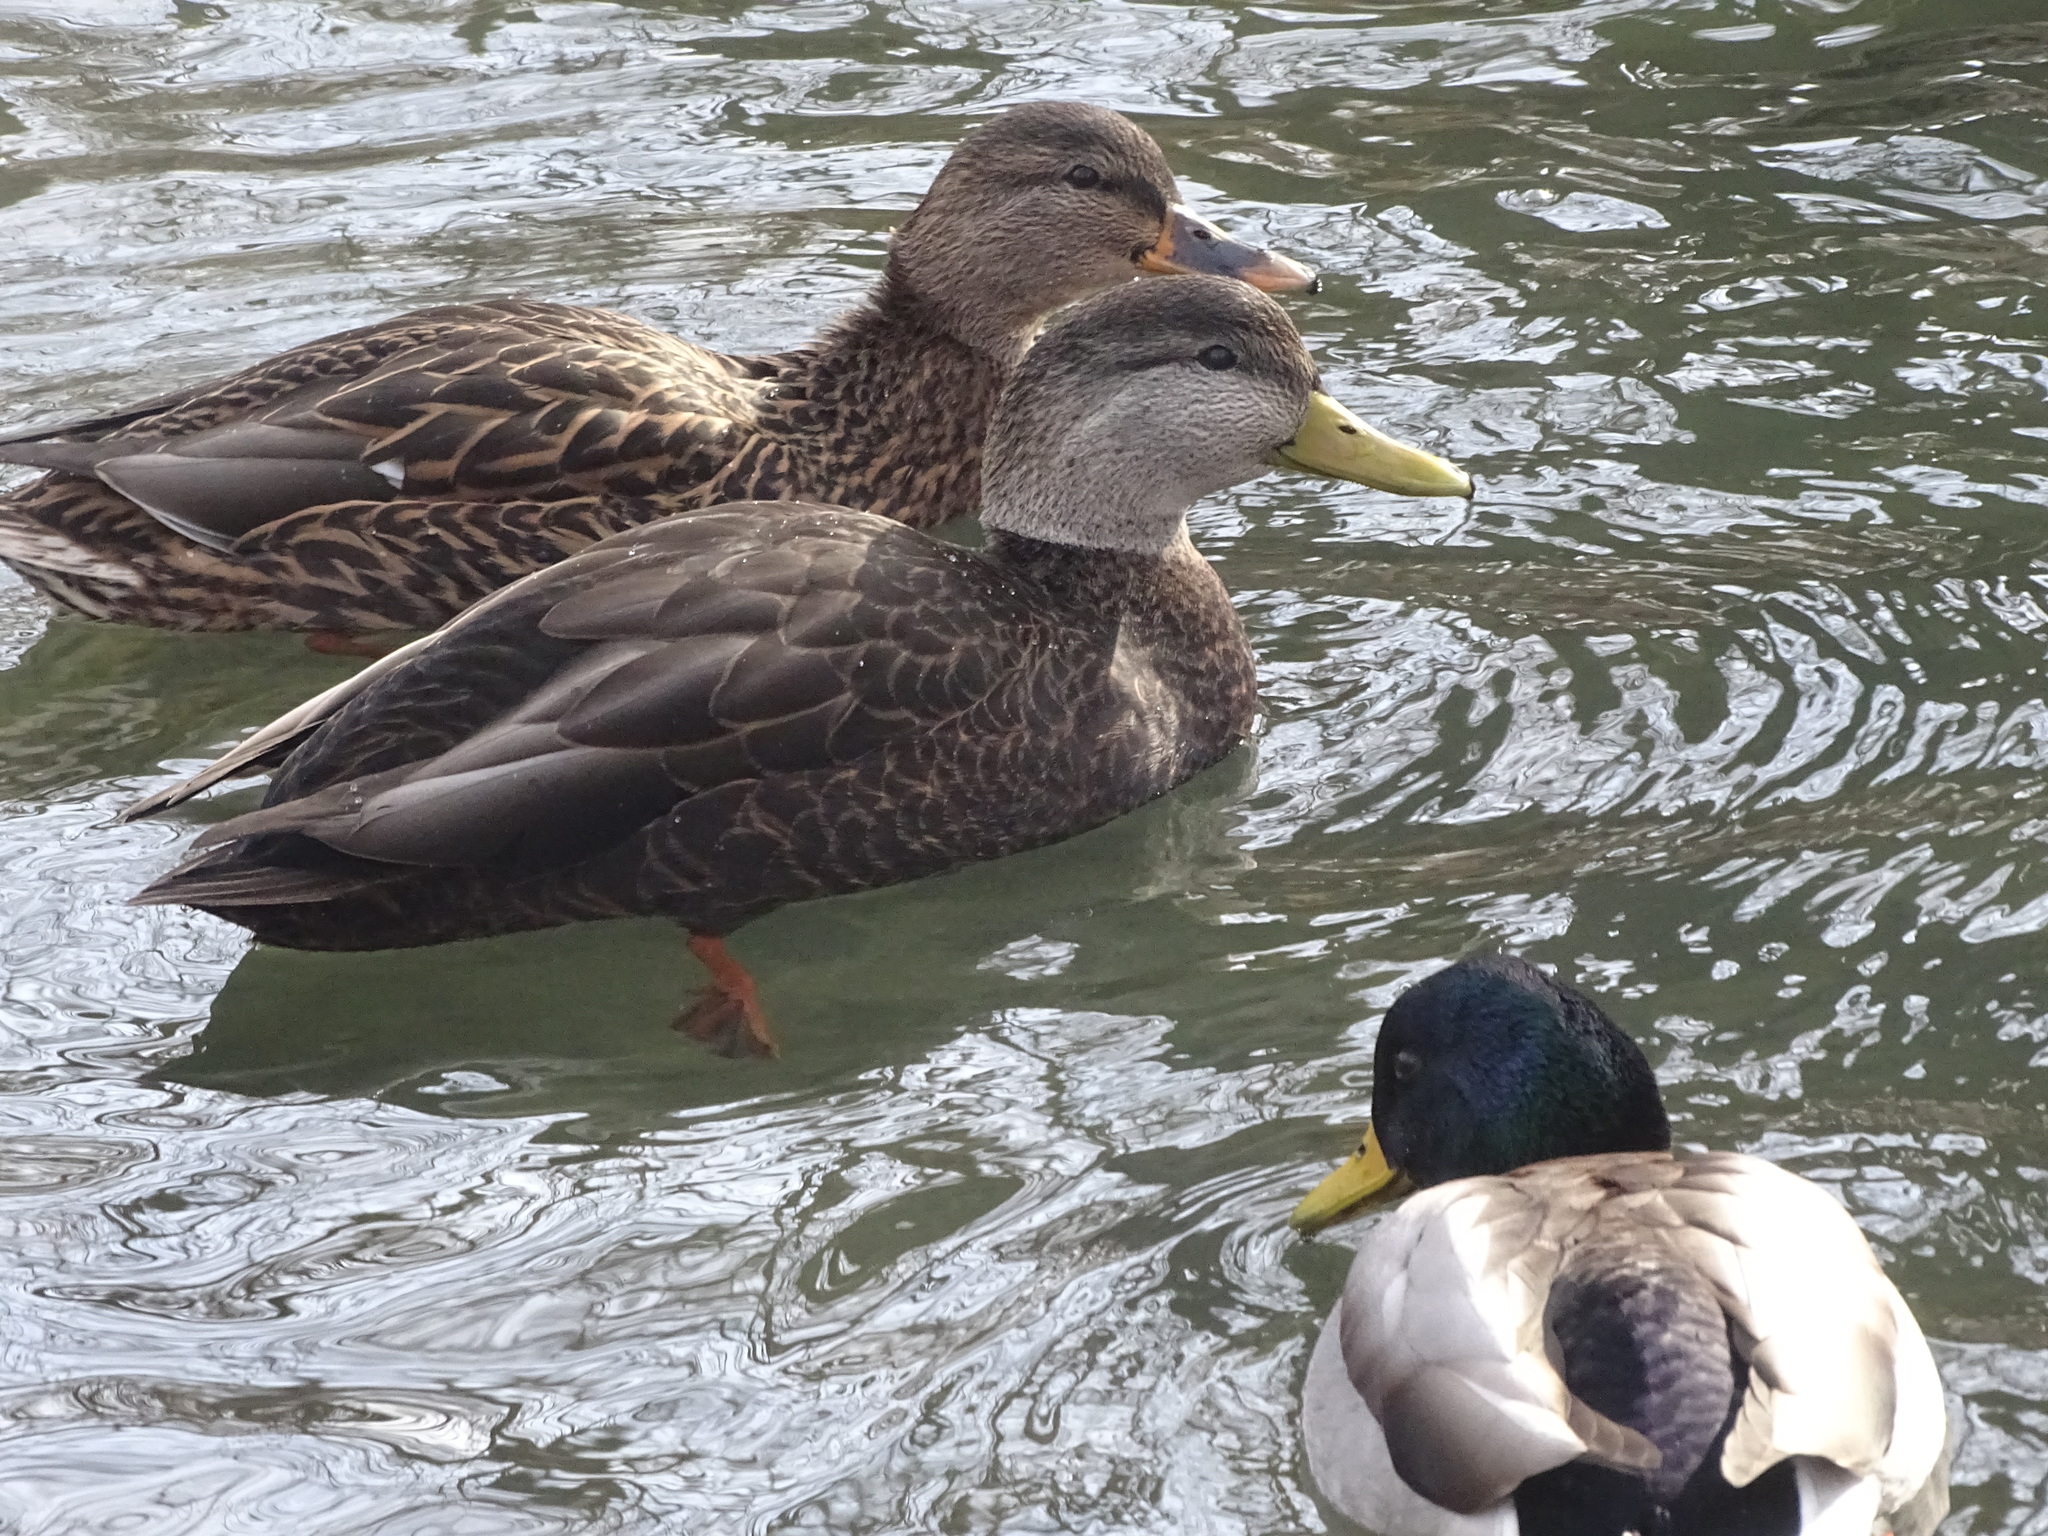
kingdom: Animalia
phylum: Chordata
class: Aves
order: Anseriformes
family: Anatidae
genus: Anas
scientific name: Anas rubripes
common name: American black duck
